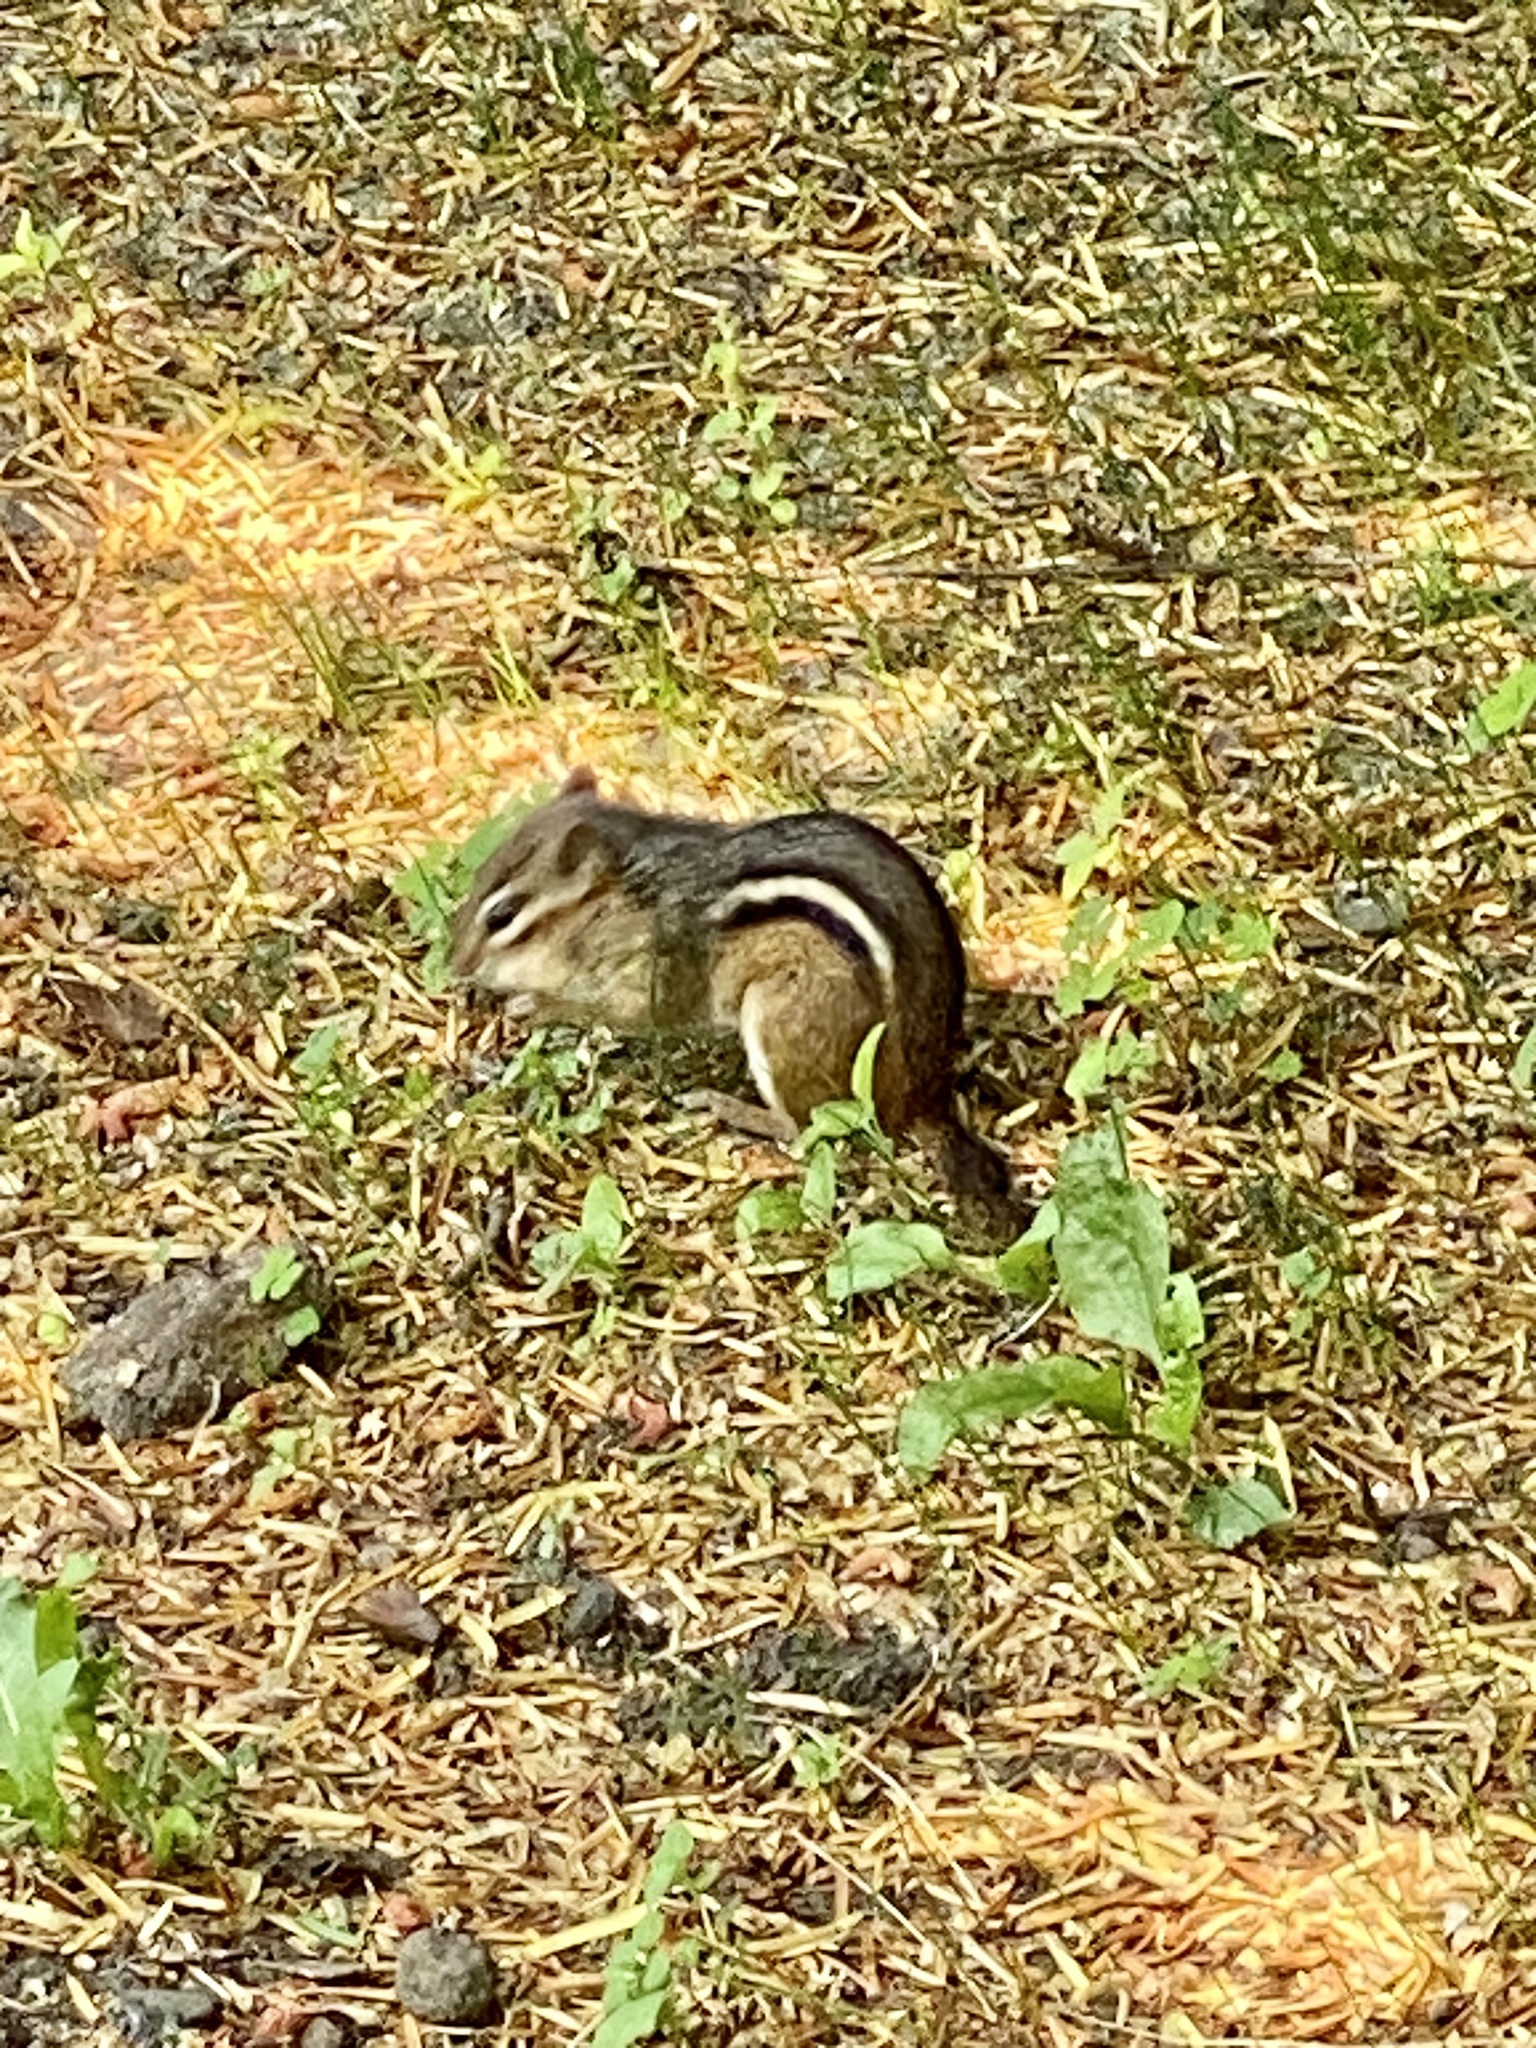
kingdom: Animalia
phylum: Chordata
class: Mammalia
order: Rodentia
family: Sciuridae
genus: Tamias
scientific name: Tamias striatus
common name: Eastern chipmunk
